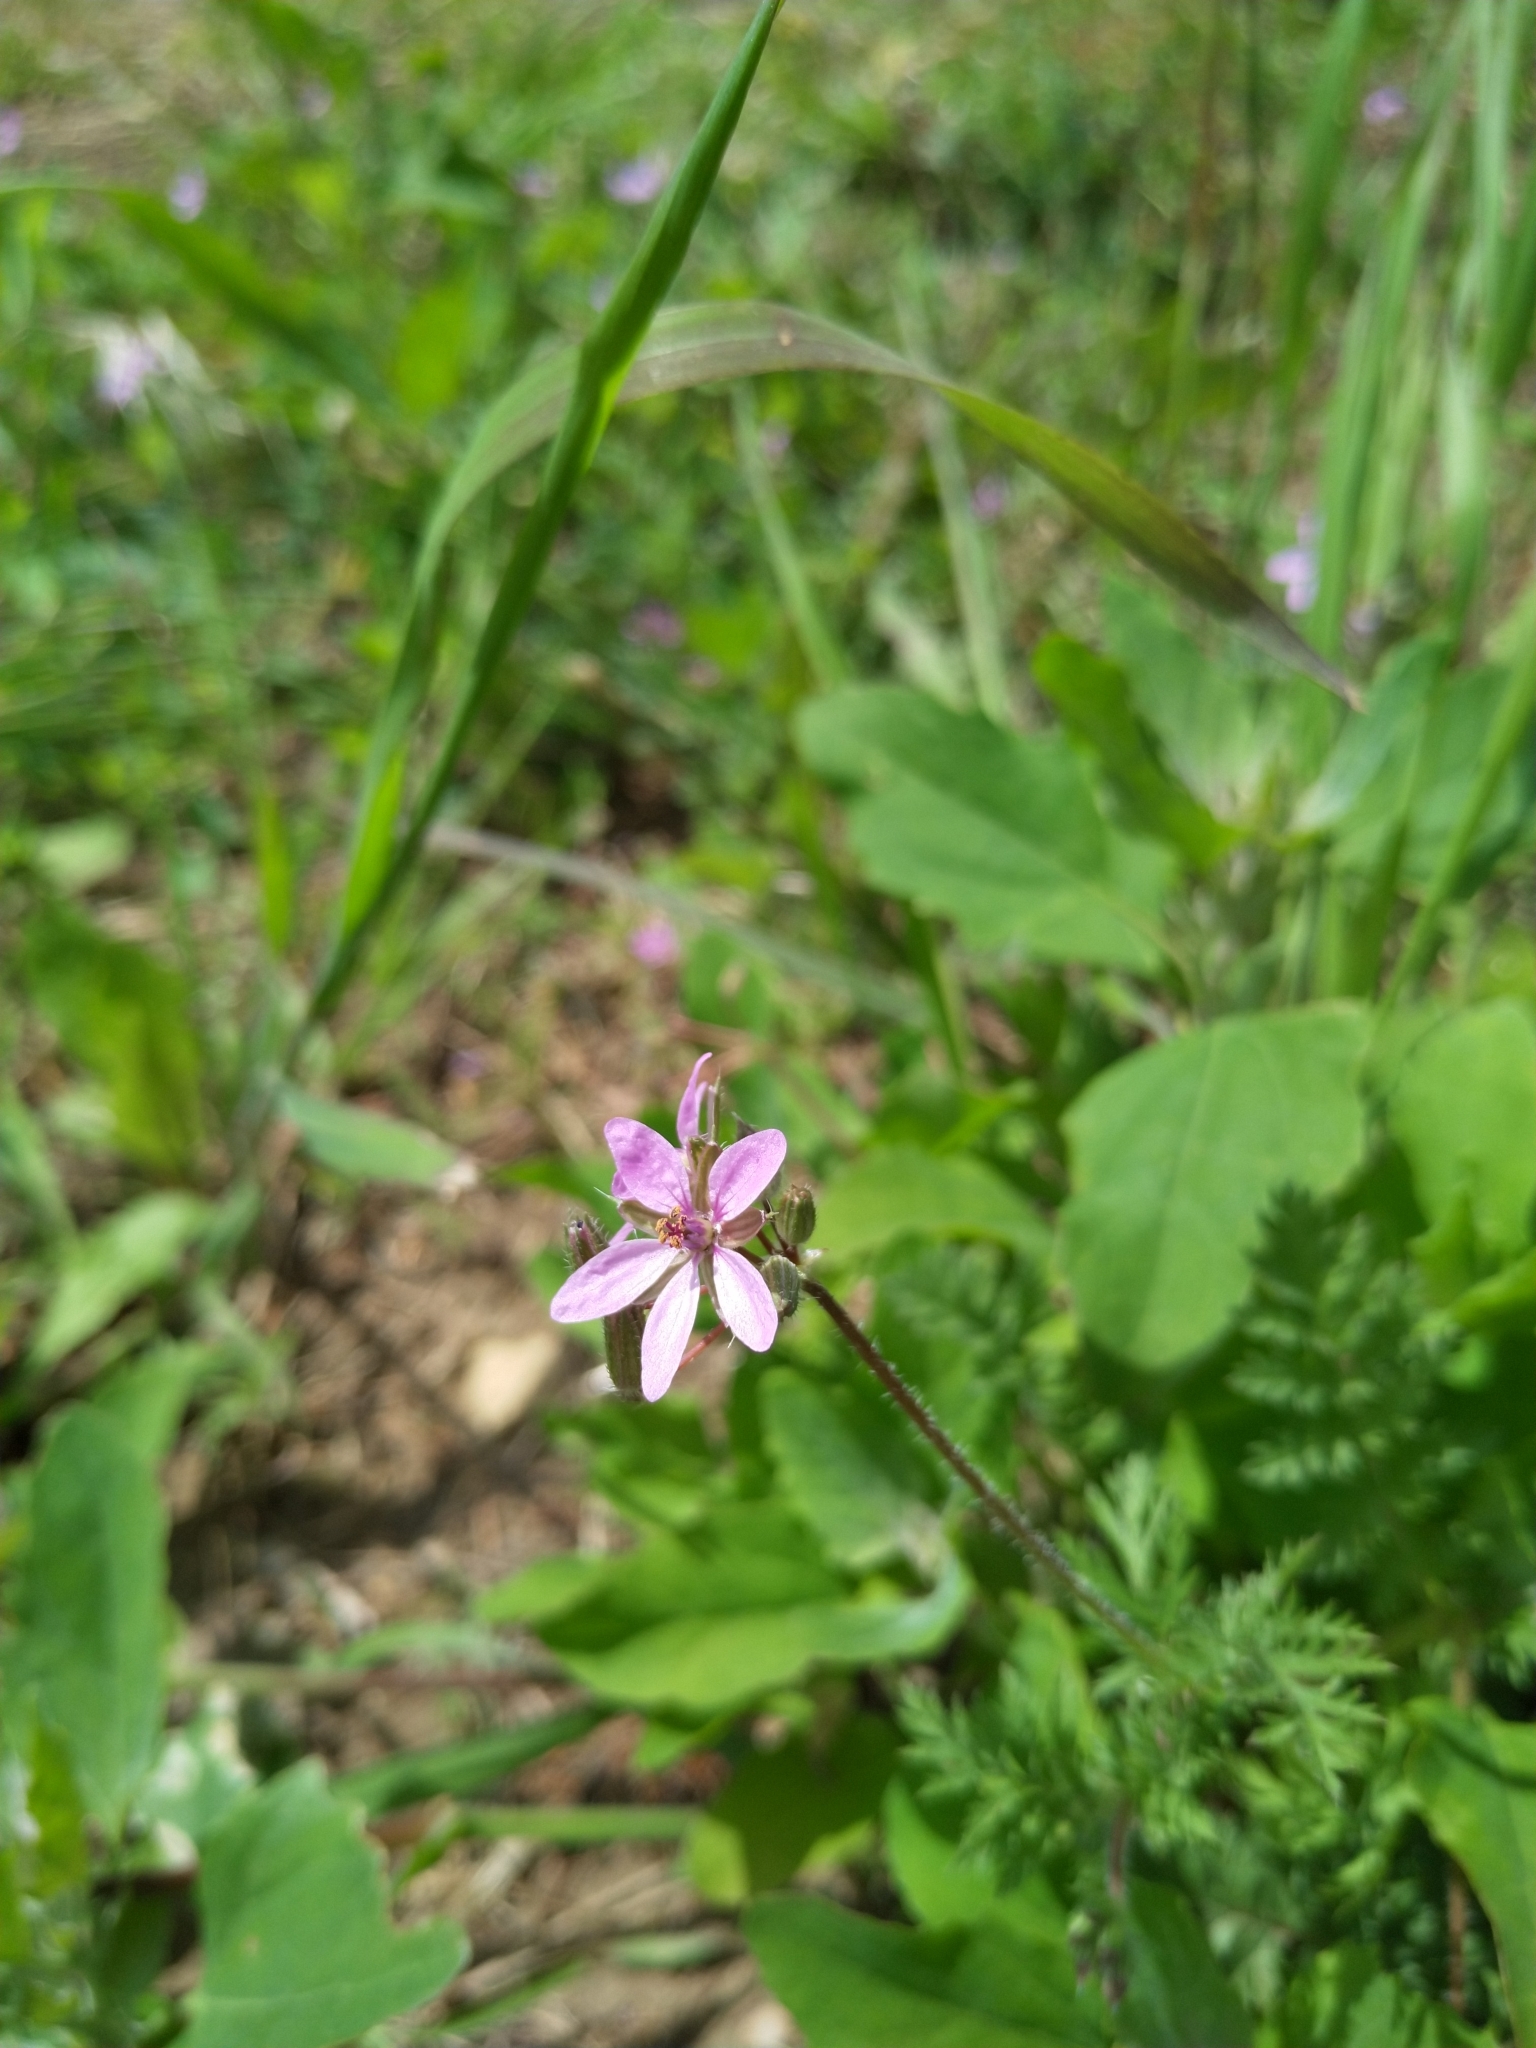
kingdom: Plantae
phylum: Tracheophyta
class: Magnoliopsida
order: Geraniales
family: Geraniaceae
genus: Erodium
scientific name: Erodium cicutarium
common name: Common stork's-bill
